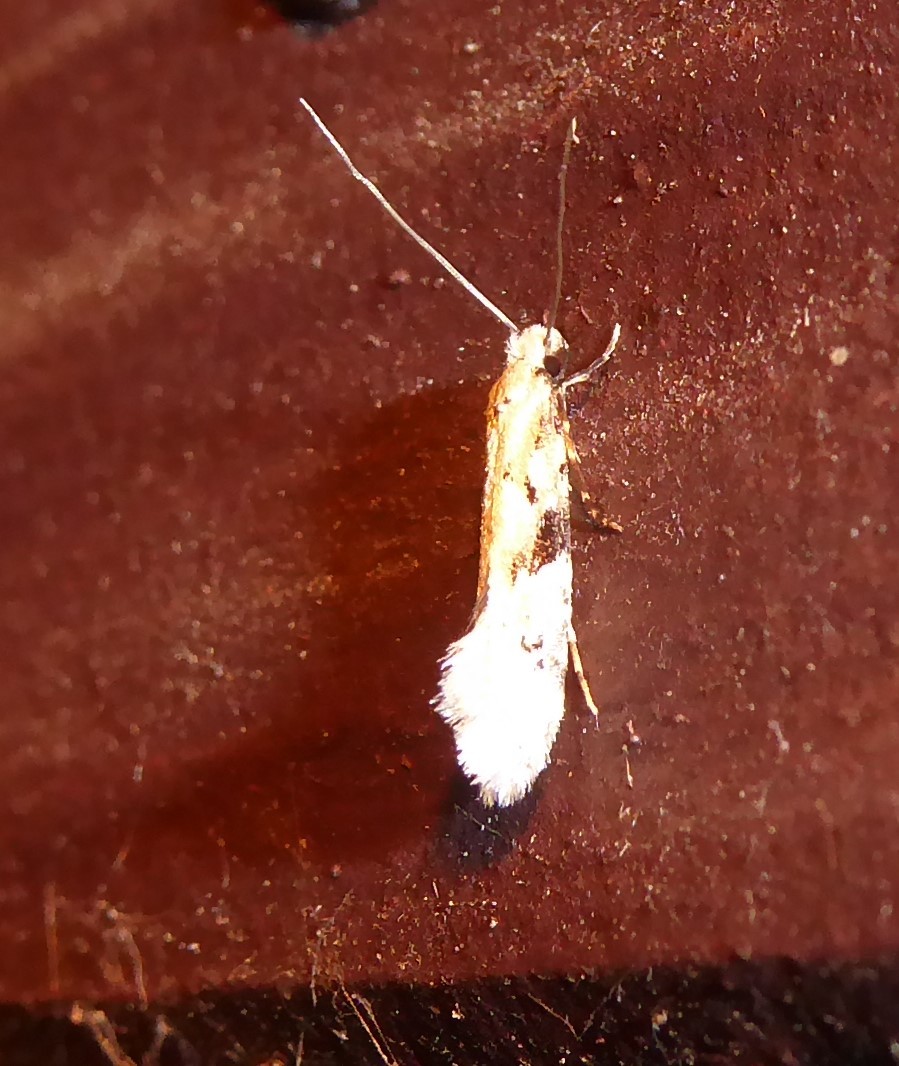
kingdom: Animalia
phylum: Arthropoda
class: Insecta
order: Lepidoptera
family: Tineidae
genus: Crypsitricha
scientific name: Crypsitricha mesotypa
